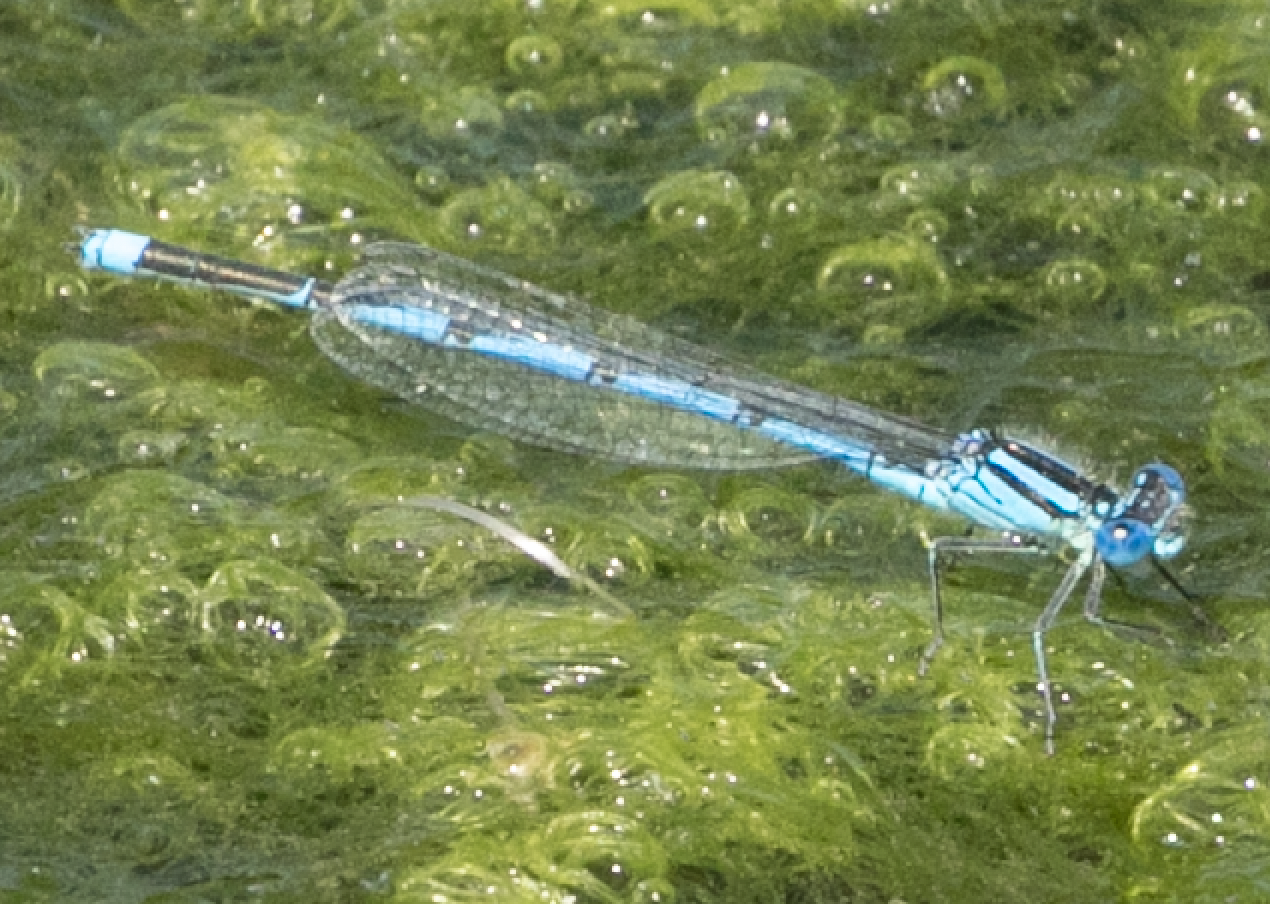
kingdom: Animalia
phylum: Arthropoda
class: Insecta
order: Odonata
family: Coenagrionidae
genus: Erythromma
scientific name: Erythromma lindenii
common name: Blue-eye
